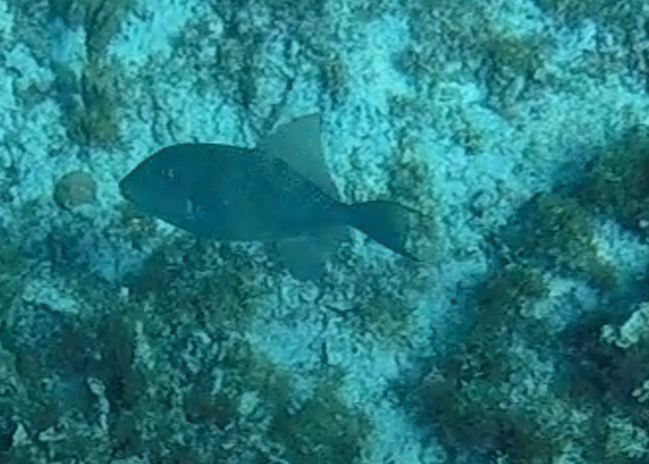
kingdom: Animalia
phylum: Chordata
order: Tetraodontiformes
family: Balistidae
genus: Balistes
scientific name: Balistes capriscus
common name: Grey triggerfish
